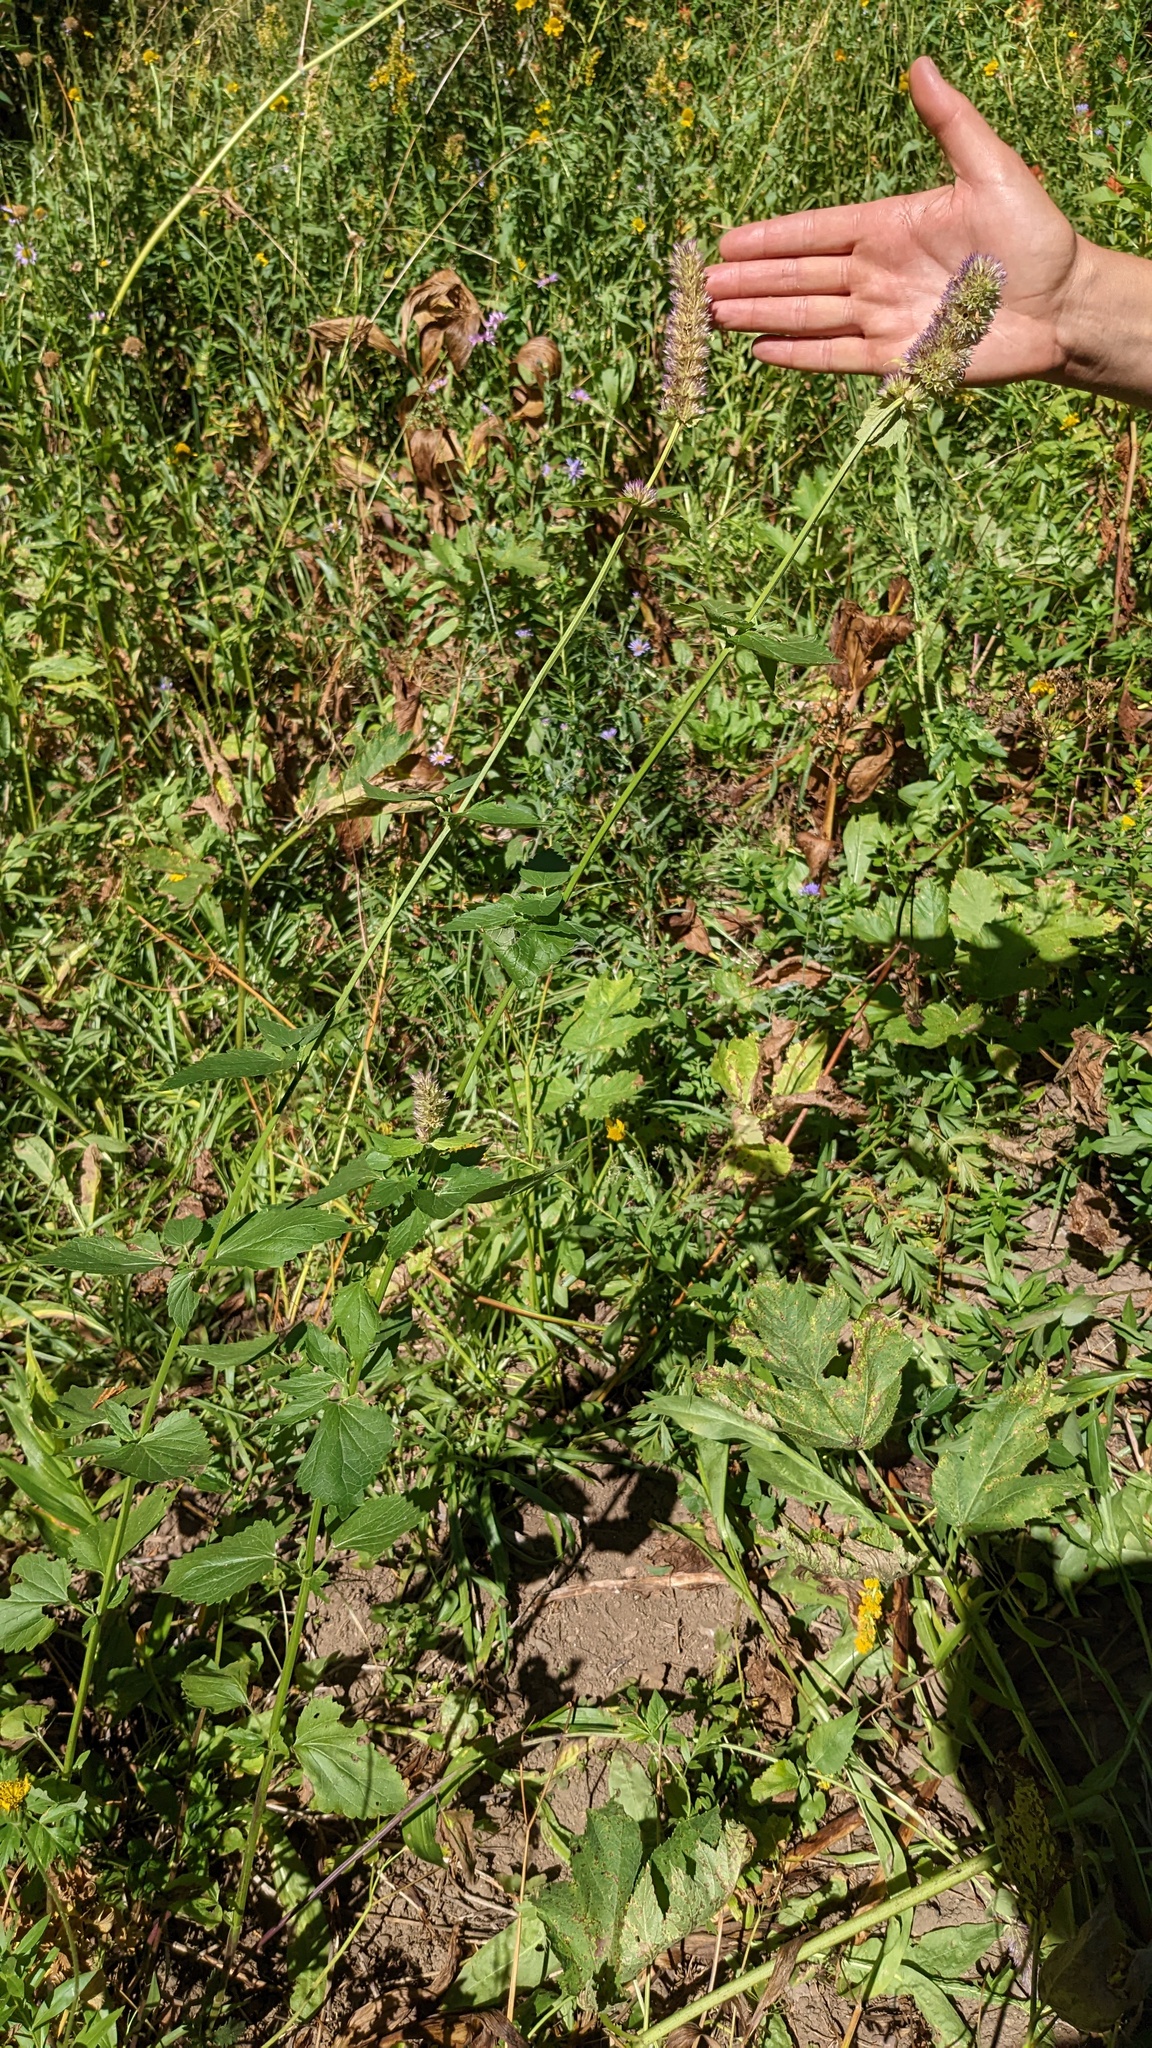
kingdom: Plantae
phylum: Tracheophyta
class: Magnoliopsida
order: Lamiales
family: Lamiaceae
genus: Agastache
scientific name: Agastache urticifolia
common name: Horsemint giant hyssop
